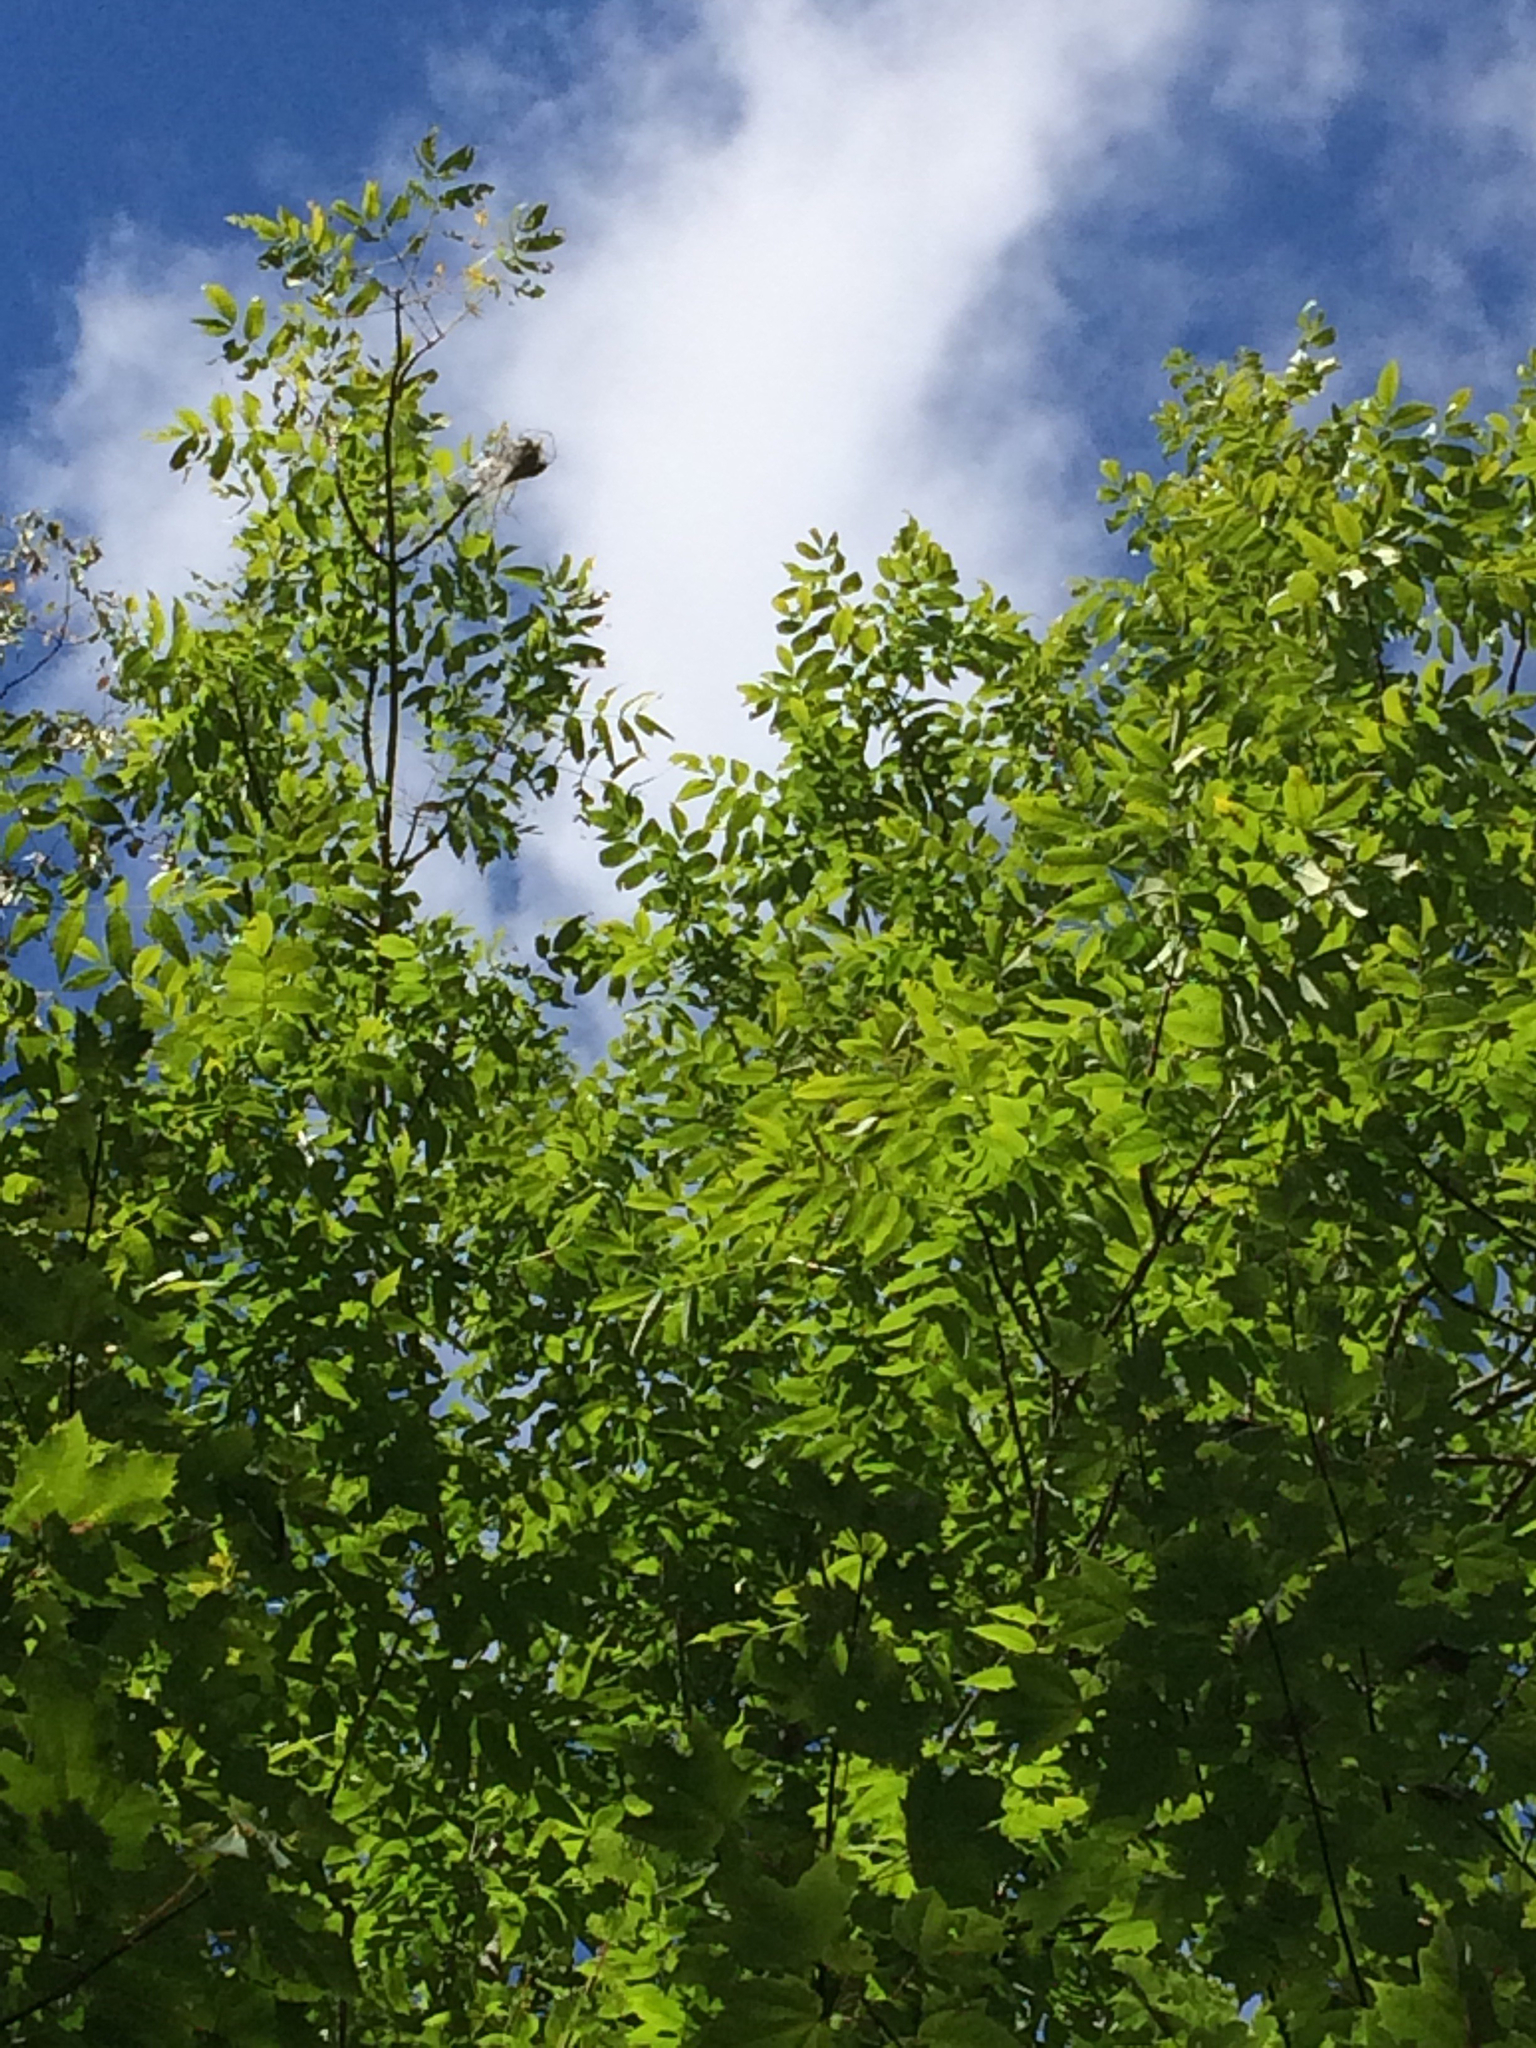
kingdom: Plantae
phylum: Tracheophyta
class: Magnoliopsida
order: Lamiales
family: Oleaceae
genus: Fraxinus
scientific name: Fraxinus nigra
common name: Black ash
